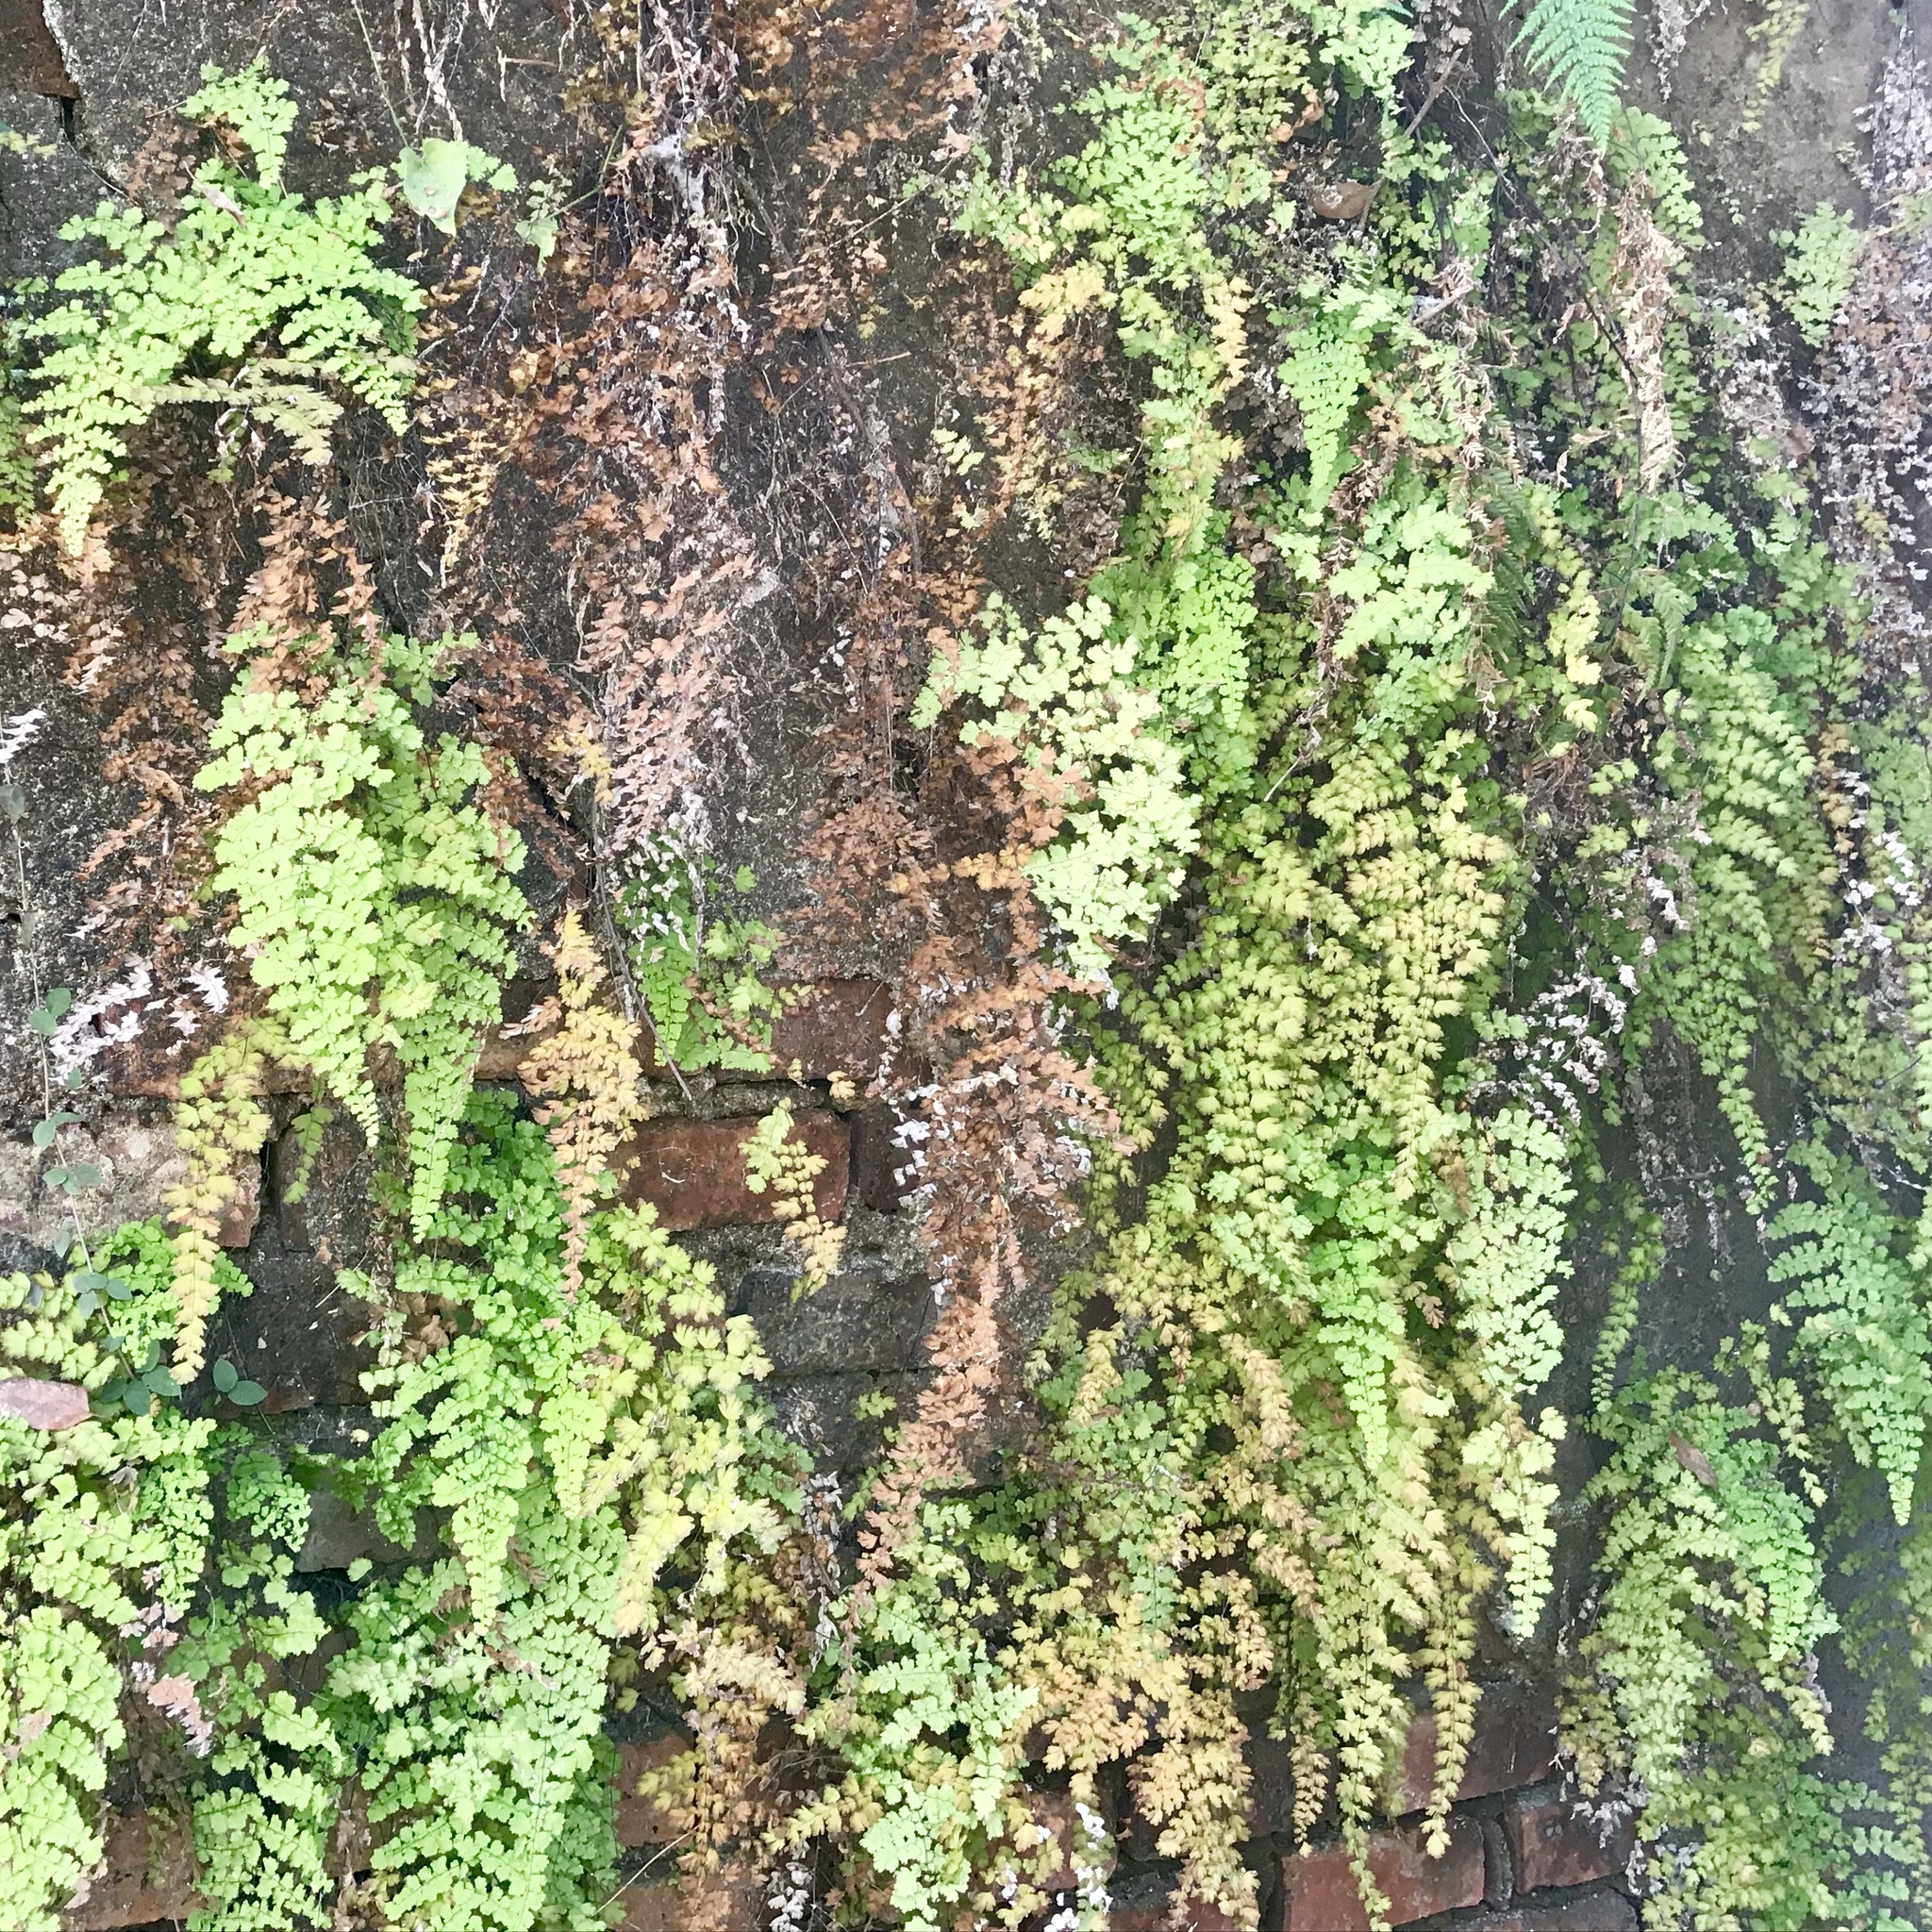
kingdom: Plantae
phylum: Tracheophyta
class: Polypodiopsida
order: Polypodiales
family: Pteridaceae
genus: Adiantum
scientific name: Adiantum concinnum
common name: Brittle maidenhair fern
